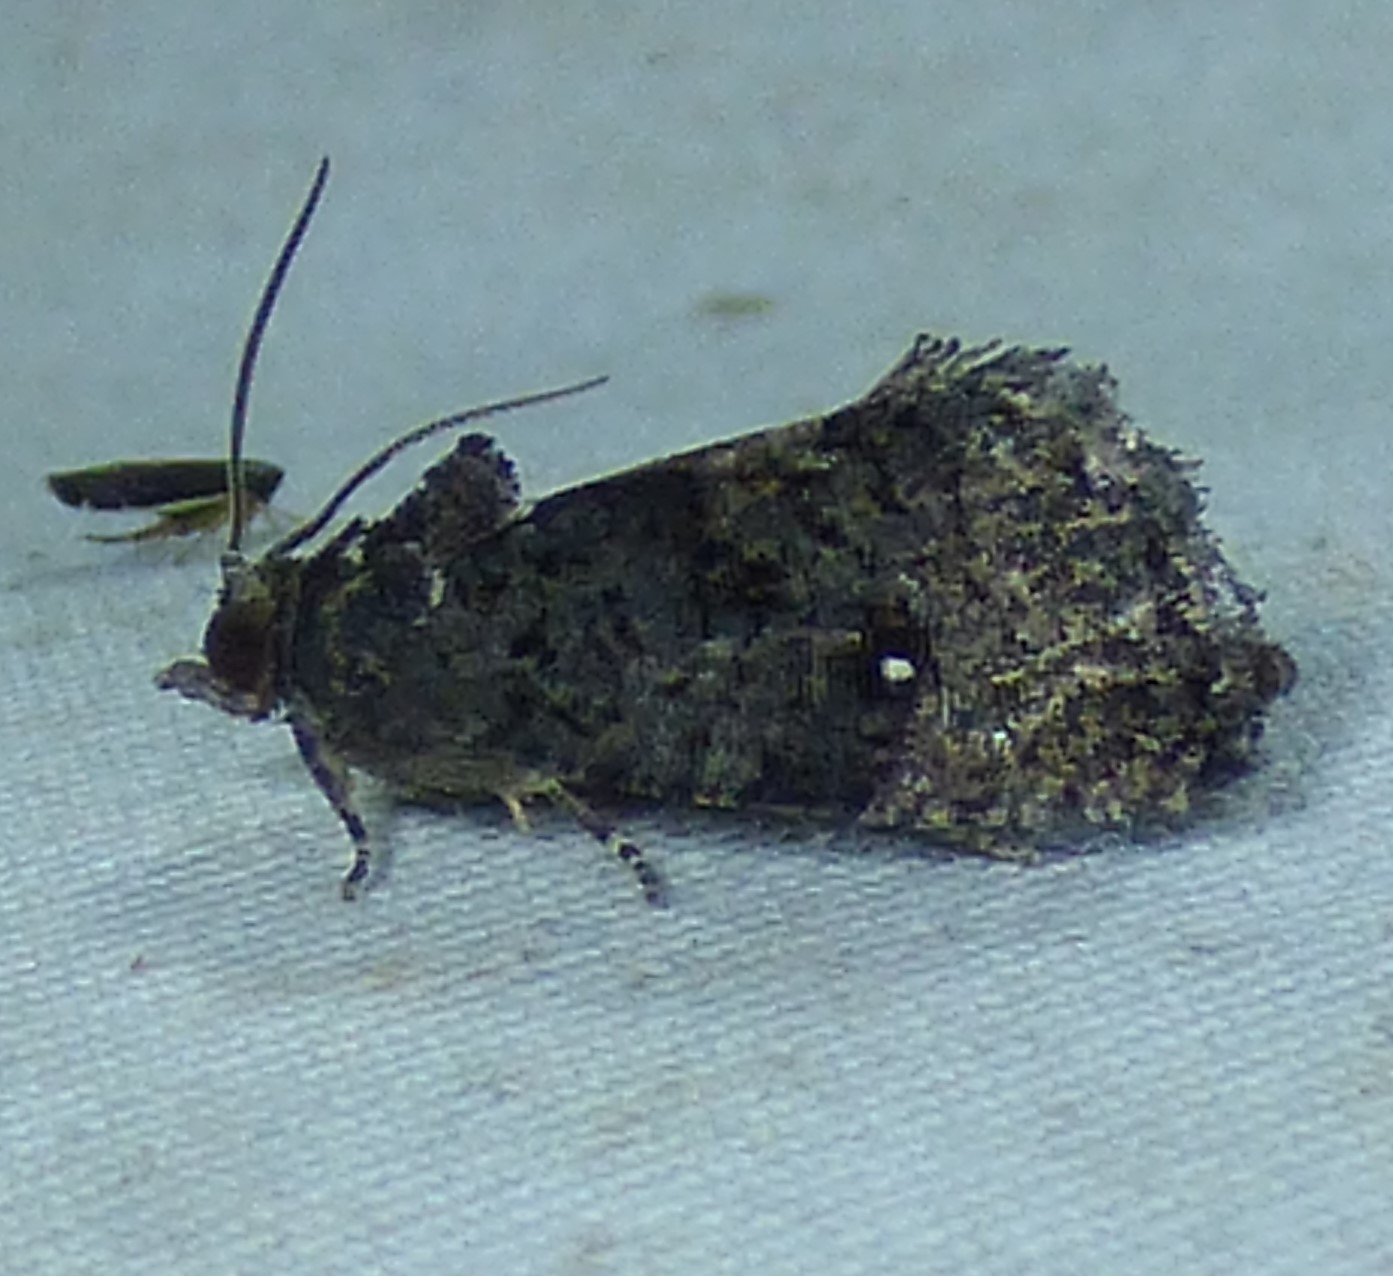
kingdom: Animalia
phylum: Arthropoda
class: Insecta
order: Lepidoptera
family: Tortricidae
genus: Gymnandrosoma
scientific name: Gymnandrosoma punctidiscanum
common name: Dotted ecdytolopha moth
